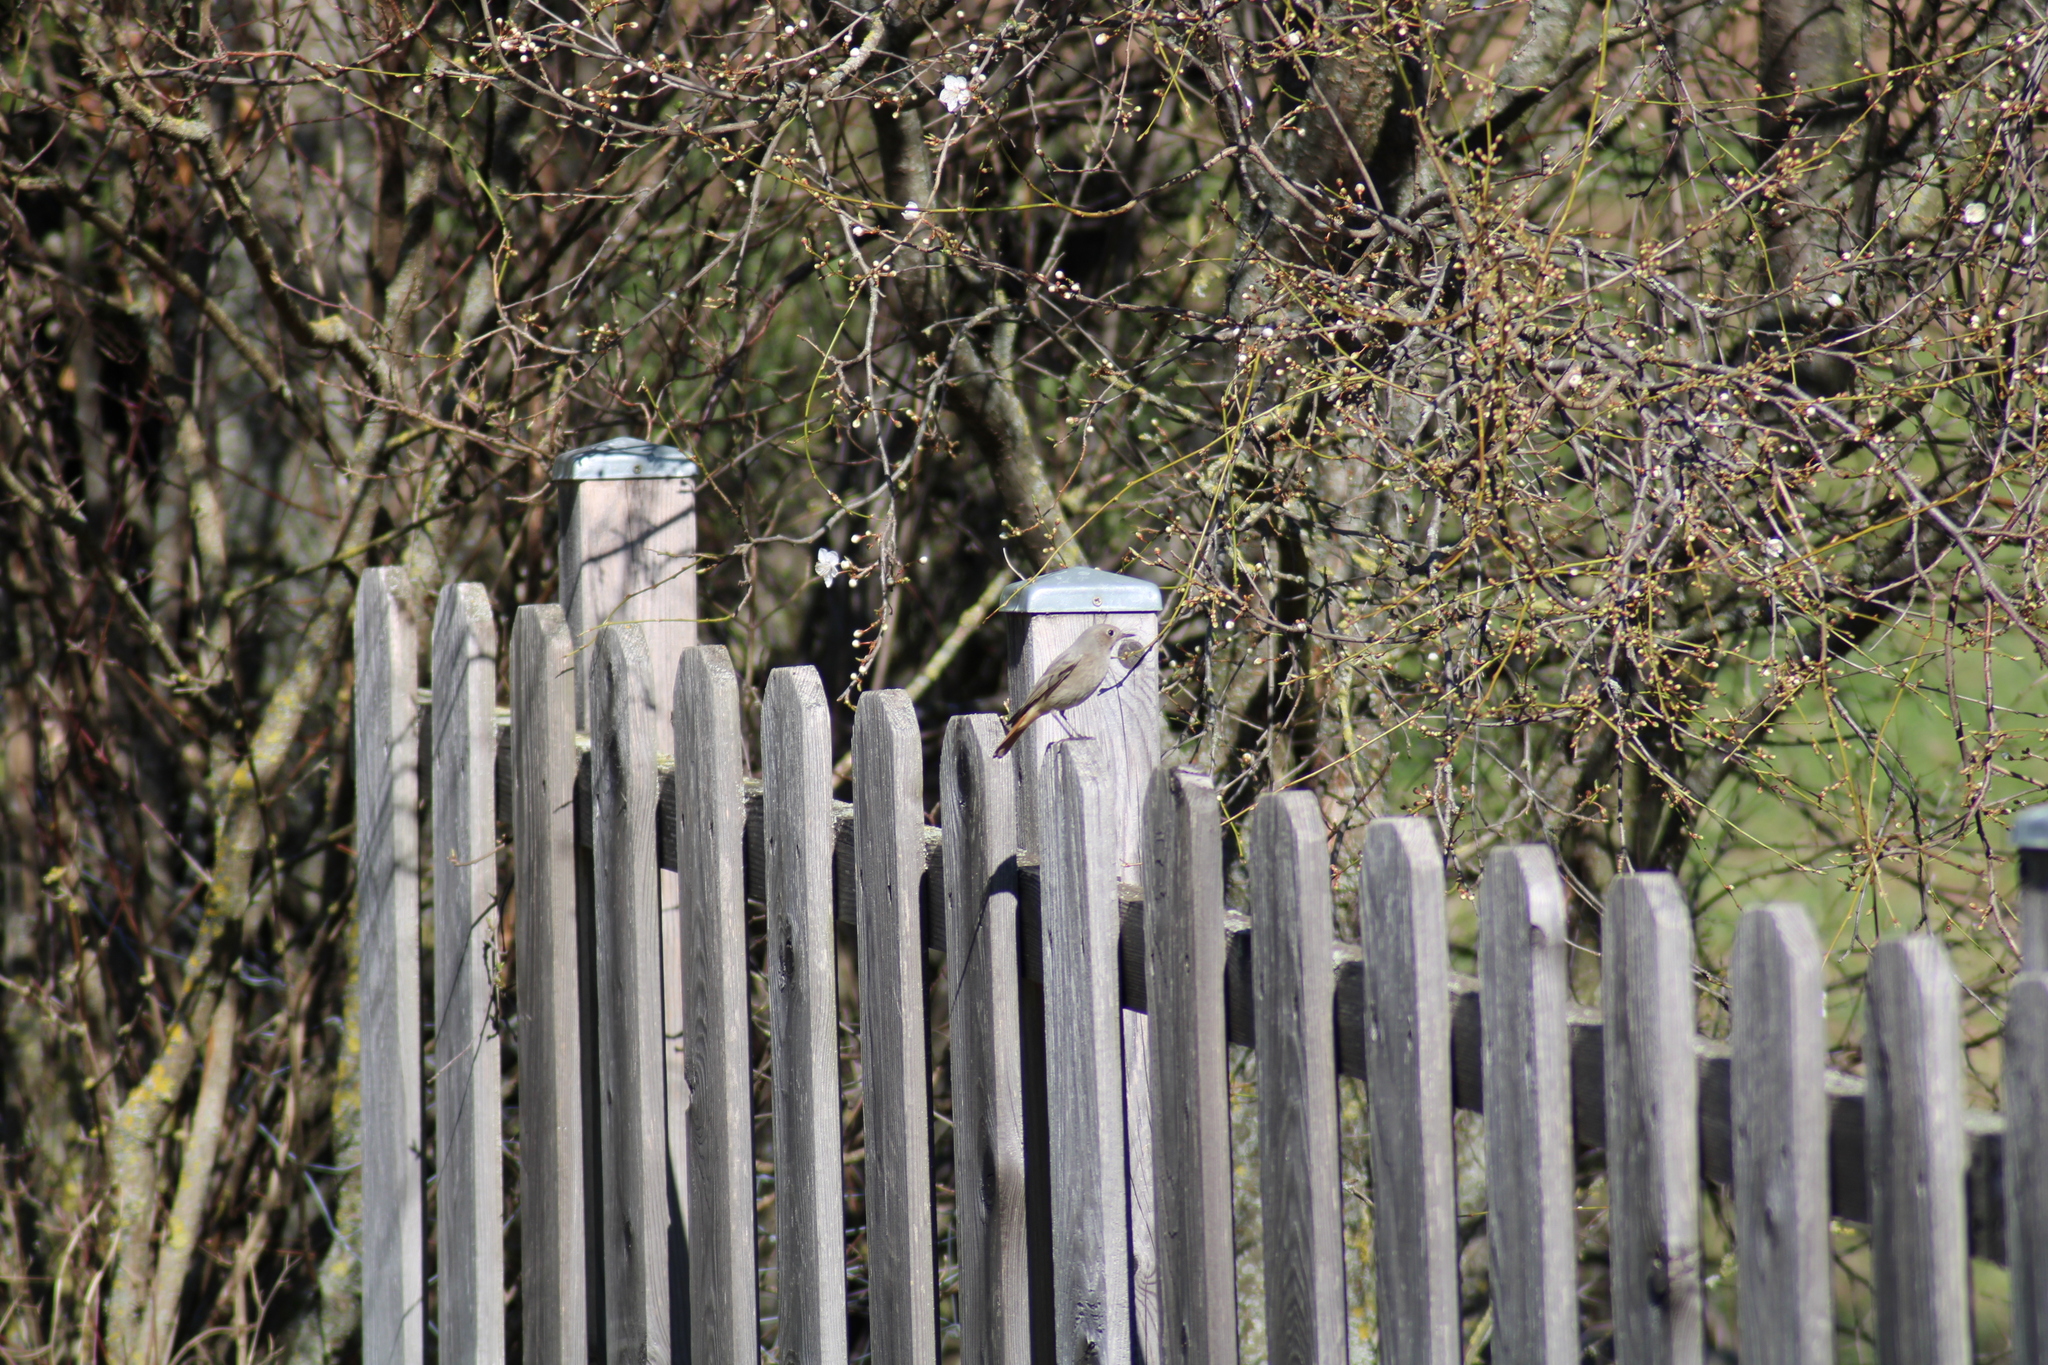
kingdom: Animalia
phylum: Chordata
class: Aves
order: Passeriformes
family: Muscicapidae
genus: Phoenicurus
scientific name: Phoenicurus ochruros
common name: Black redstart
